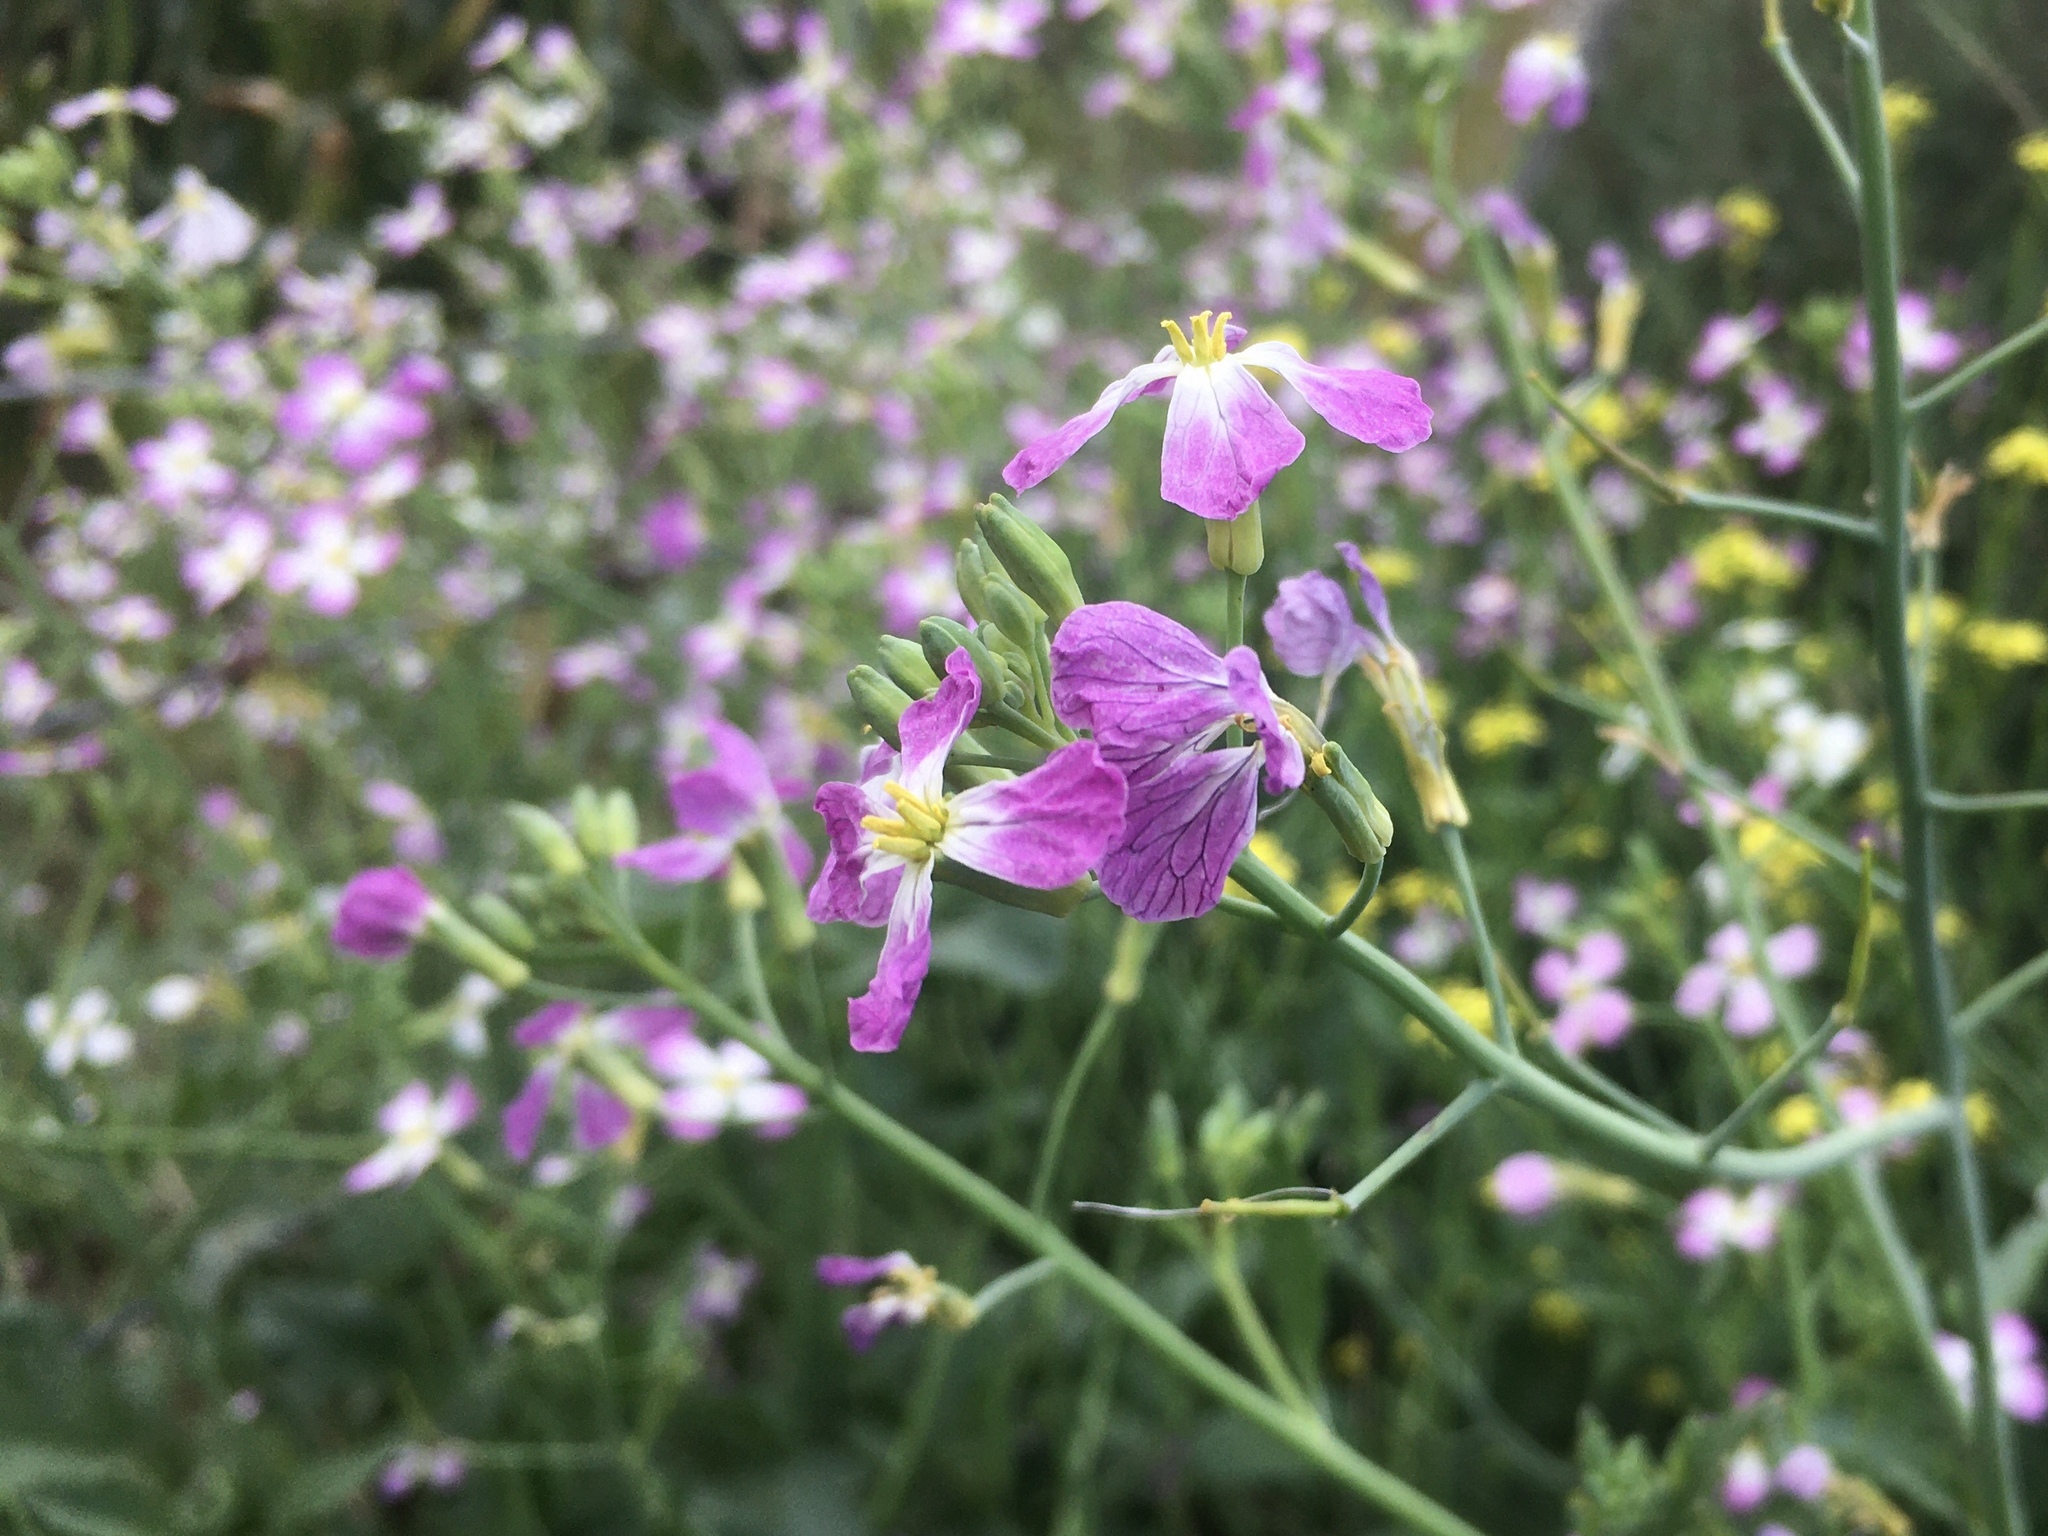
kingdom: Plantae
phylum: Tracheophyta
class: Magnoliopsida
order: Brassicales
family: Brassicaceae
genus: Raphanus
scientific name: Raphanus sativus
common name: Cultivated radish
